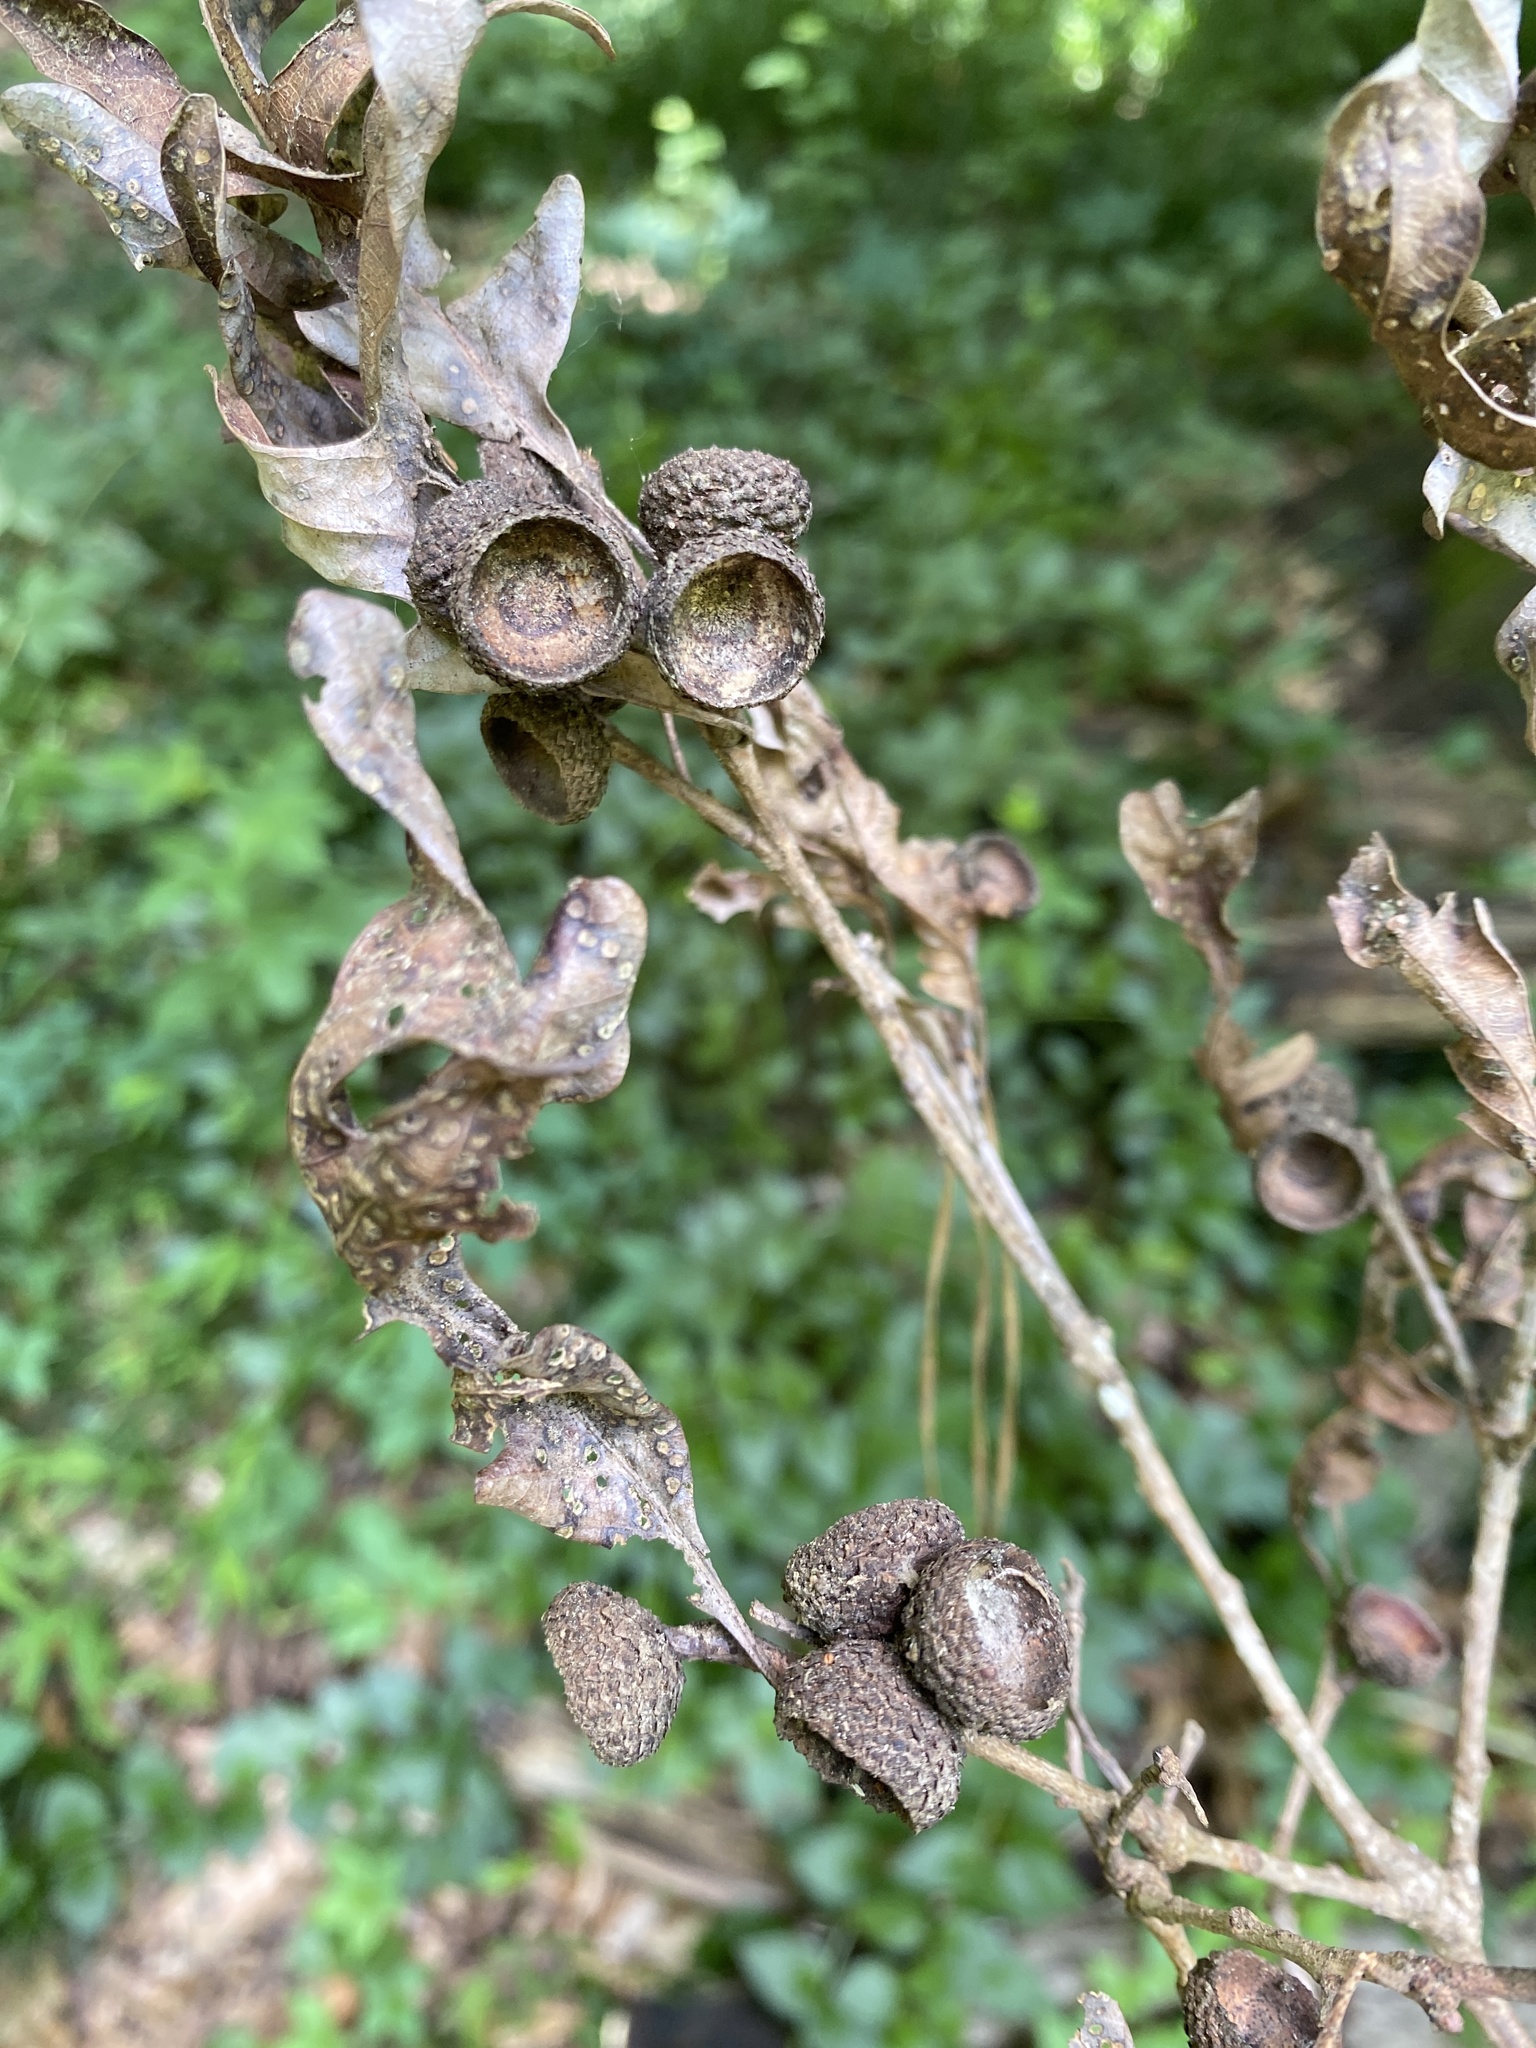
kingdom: Plantae
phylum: Tracheophyta
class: Magnoliopsida
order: Fagales
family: Fagaceae
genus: Quercus
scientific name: Quercus alba
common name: White oak
